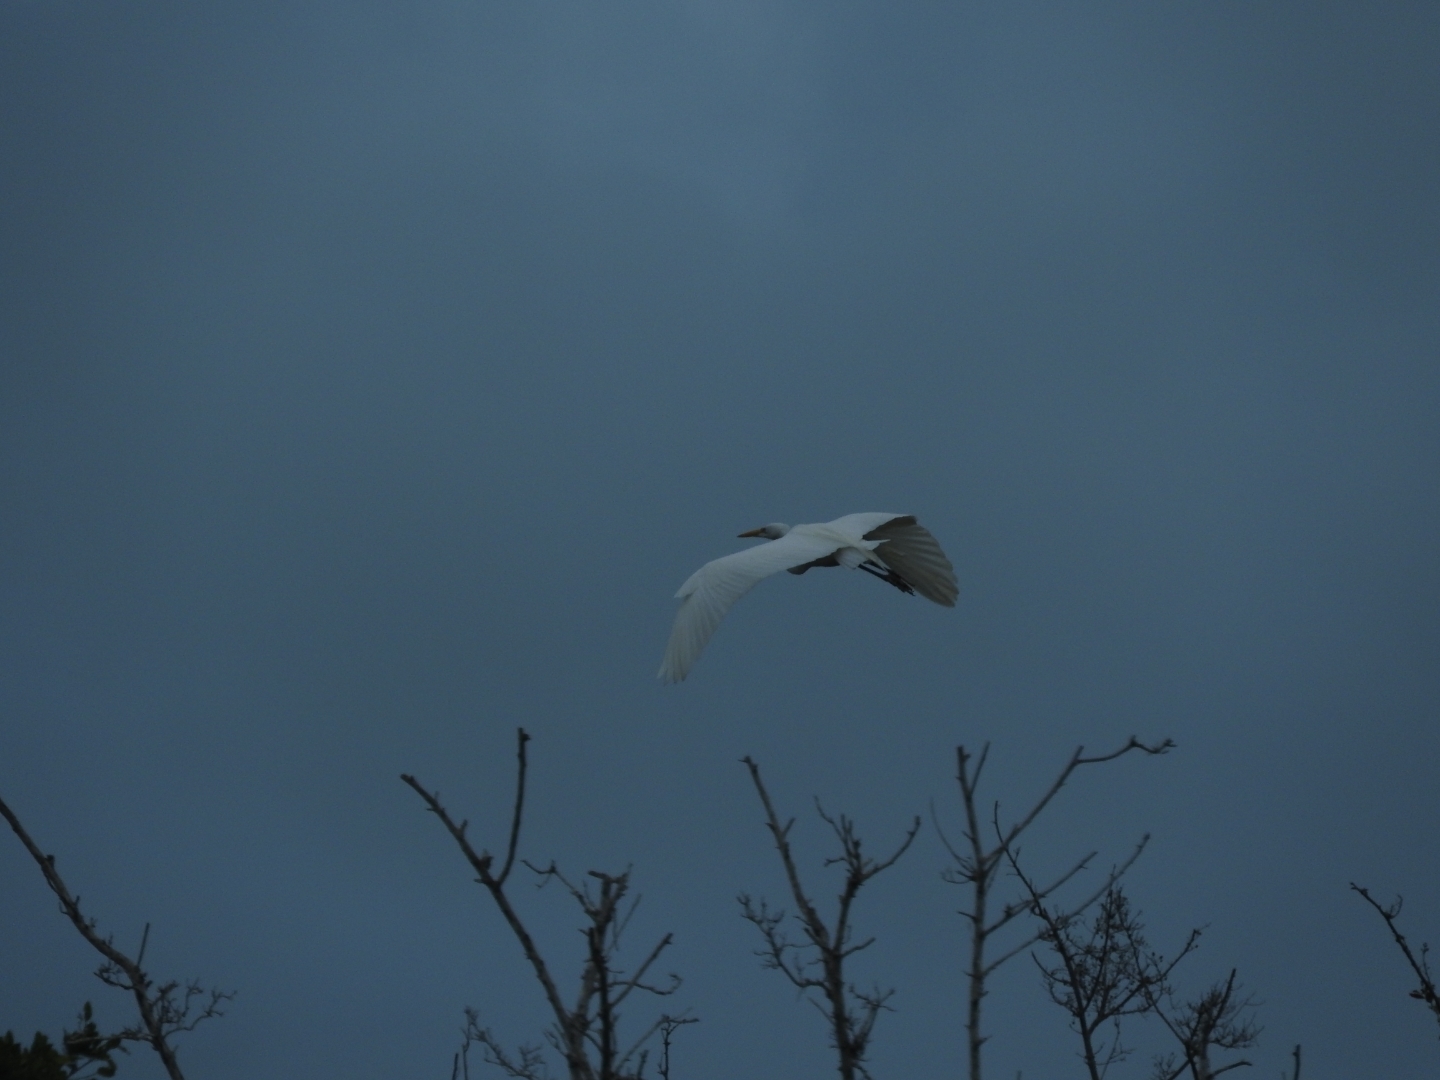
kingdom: Animalia
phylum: Chordata
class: Aves
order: Pelecaniformes
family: Ardeidae
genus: Ardea
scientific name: Ardea alba
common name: Great egret
